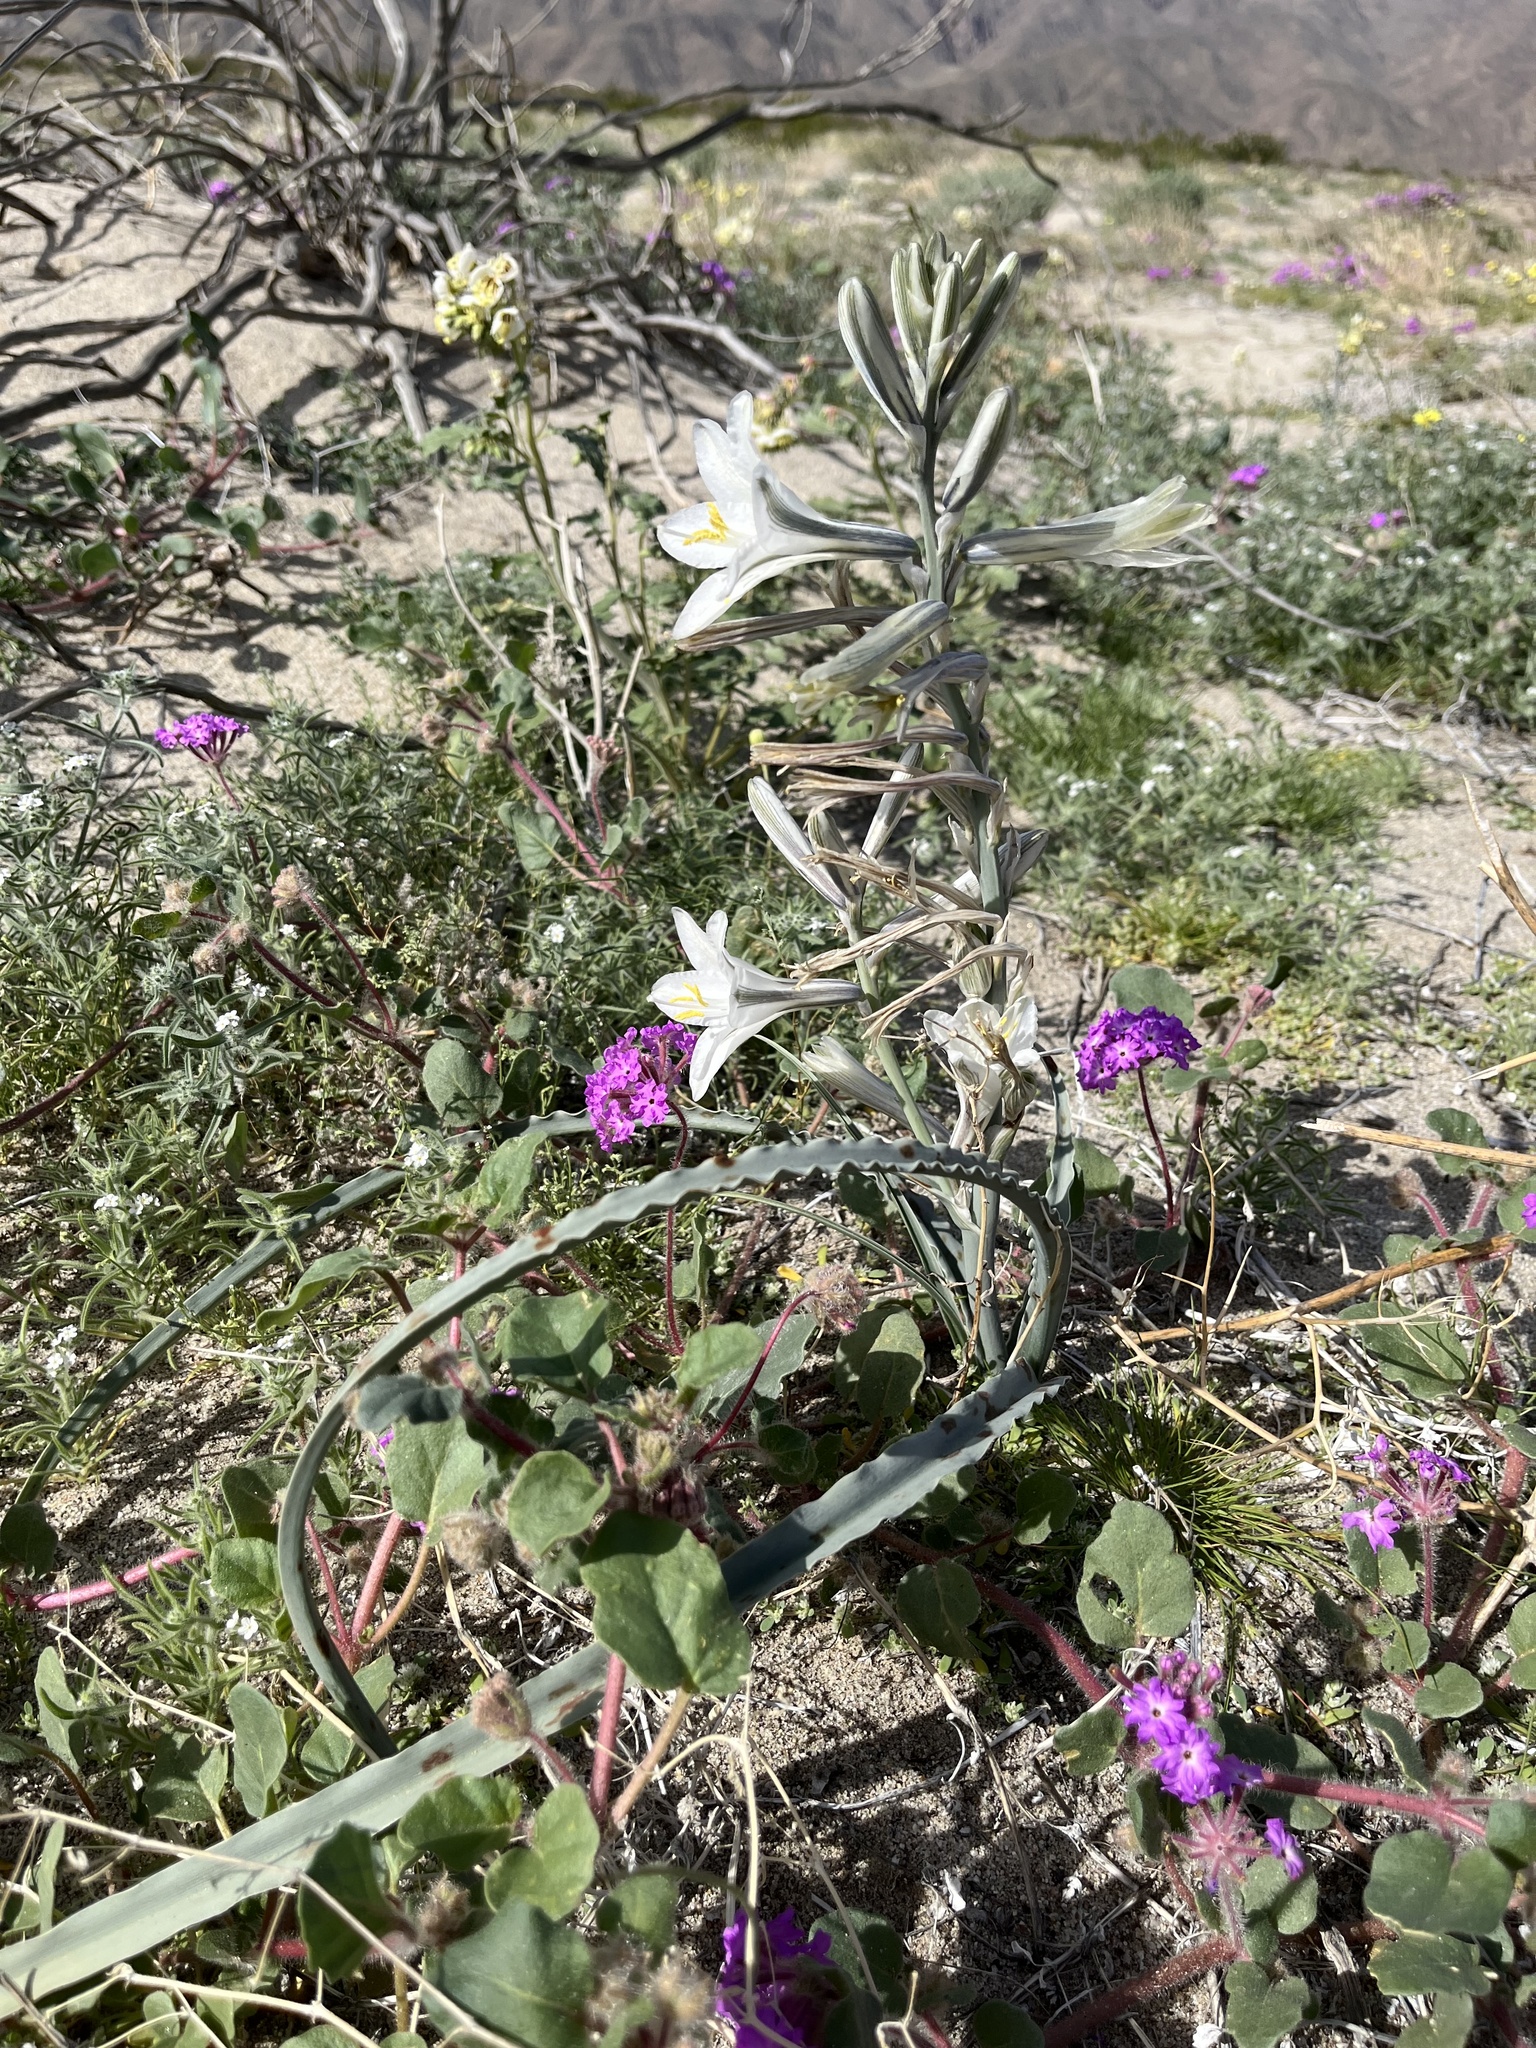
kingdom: Plantae
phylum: Tracheophyta
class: Liliopsida
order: Asparagales
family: Asparagaceae
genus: Hesperocallis
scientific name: Hesperocallis undulata
